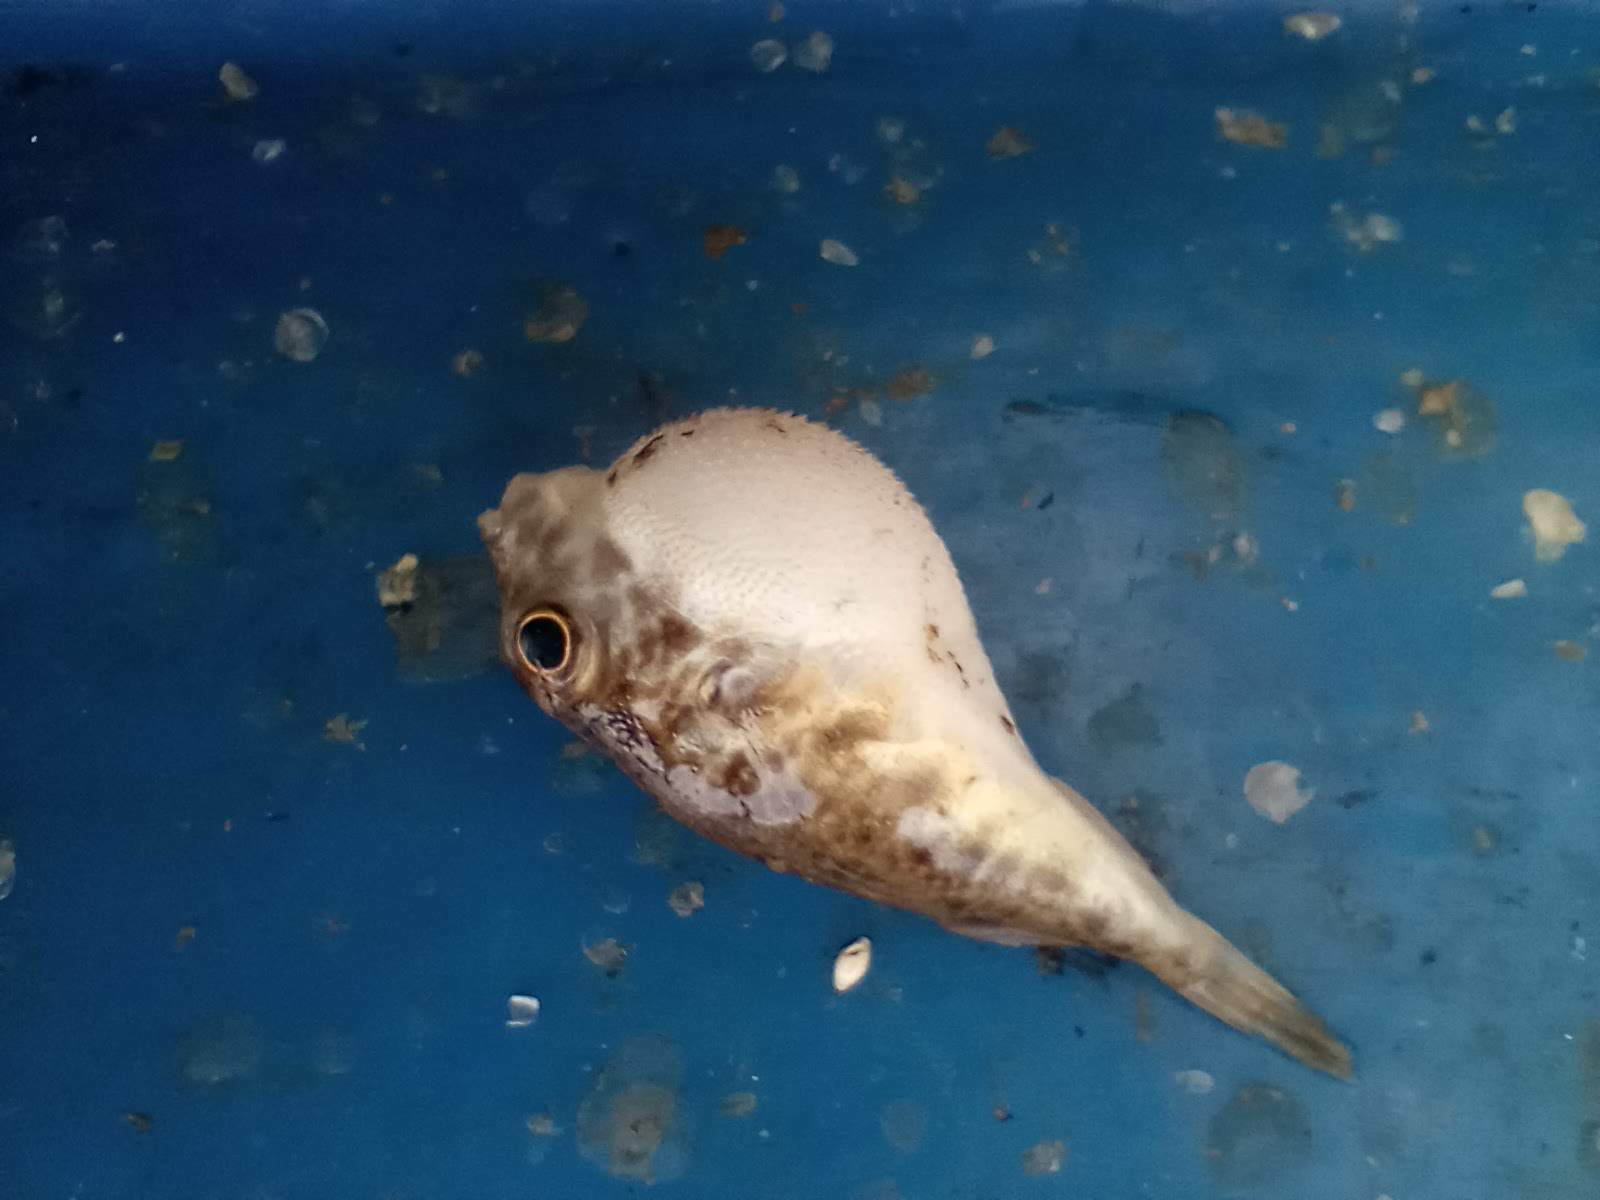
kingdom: Animalia
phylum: Chordata
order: Tetraodontiformes
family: Tetraodontidae
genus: Sphoeroides
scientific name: Sphoeroides parvus
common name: Least puffer
